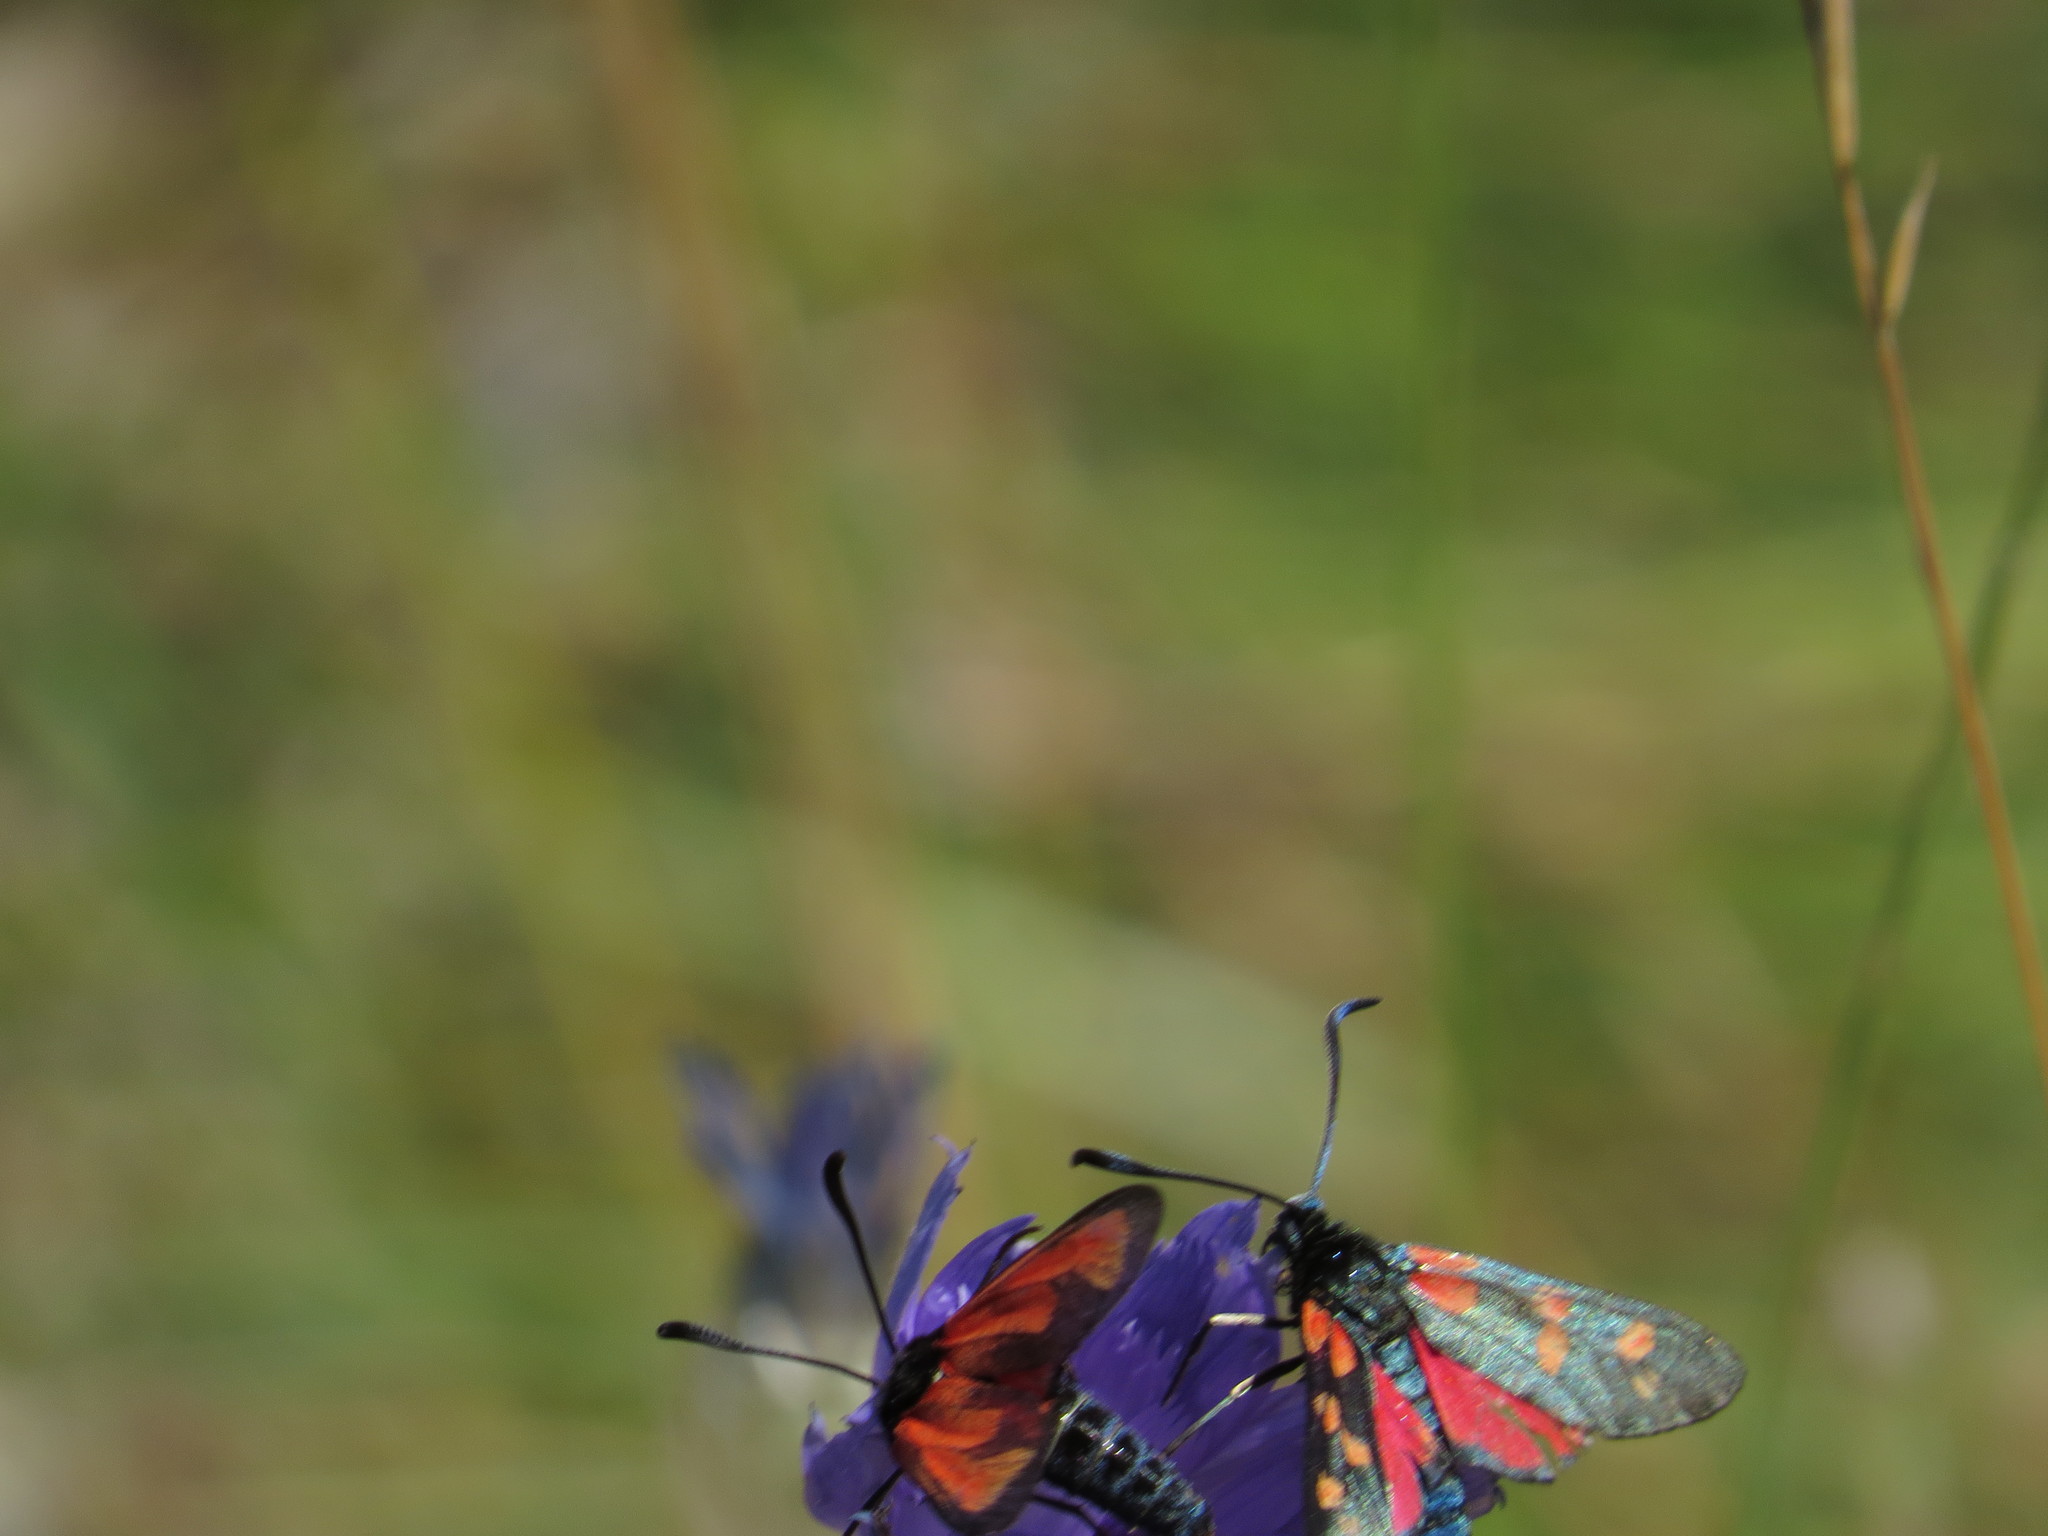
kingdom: Animalia
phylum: Arthropoda
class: Insecta
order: Lepidoptera
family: Zygaenidae
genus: Zygaena
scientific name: Zygaena filipendulae
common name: Six-spot burnet
